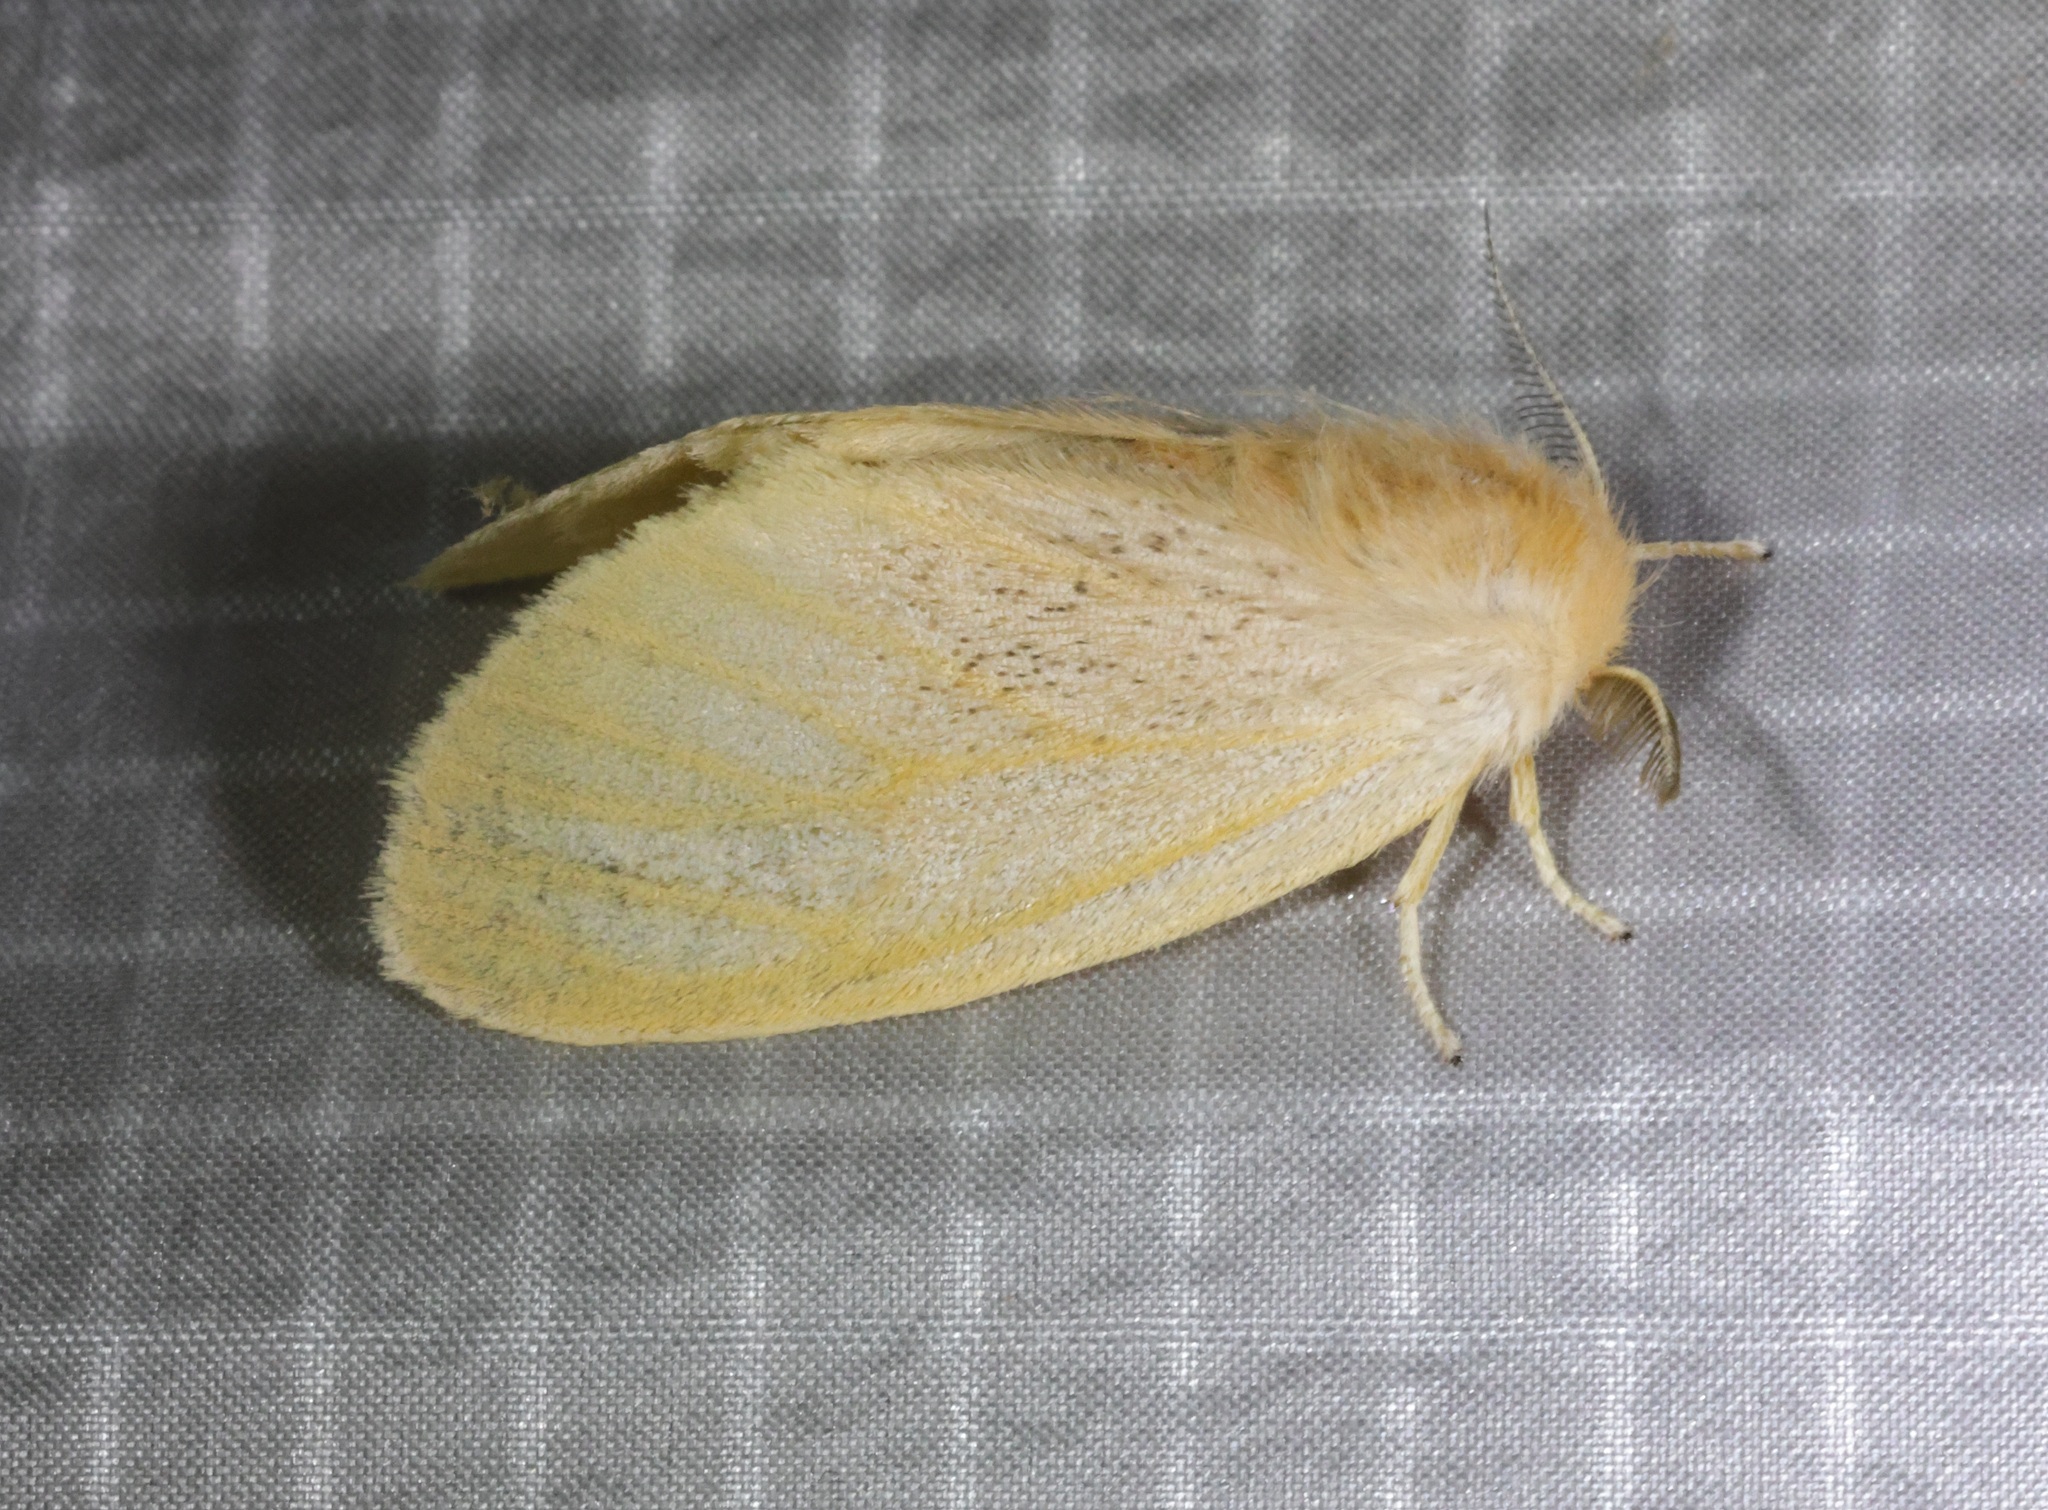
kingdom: Animalia
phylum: Arthropoda
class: Insecta
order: Lepidoptera
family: Erebidae
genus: Perina
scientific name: Perina nuda
